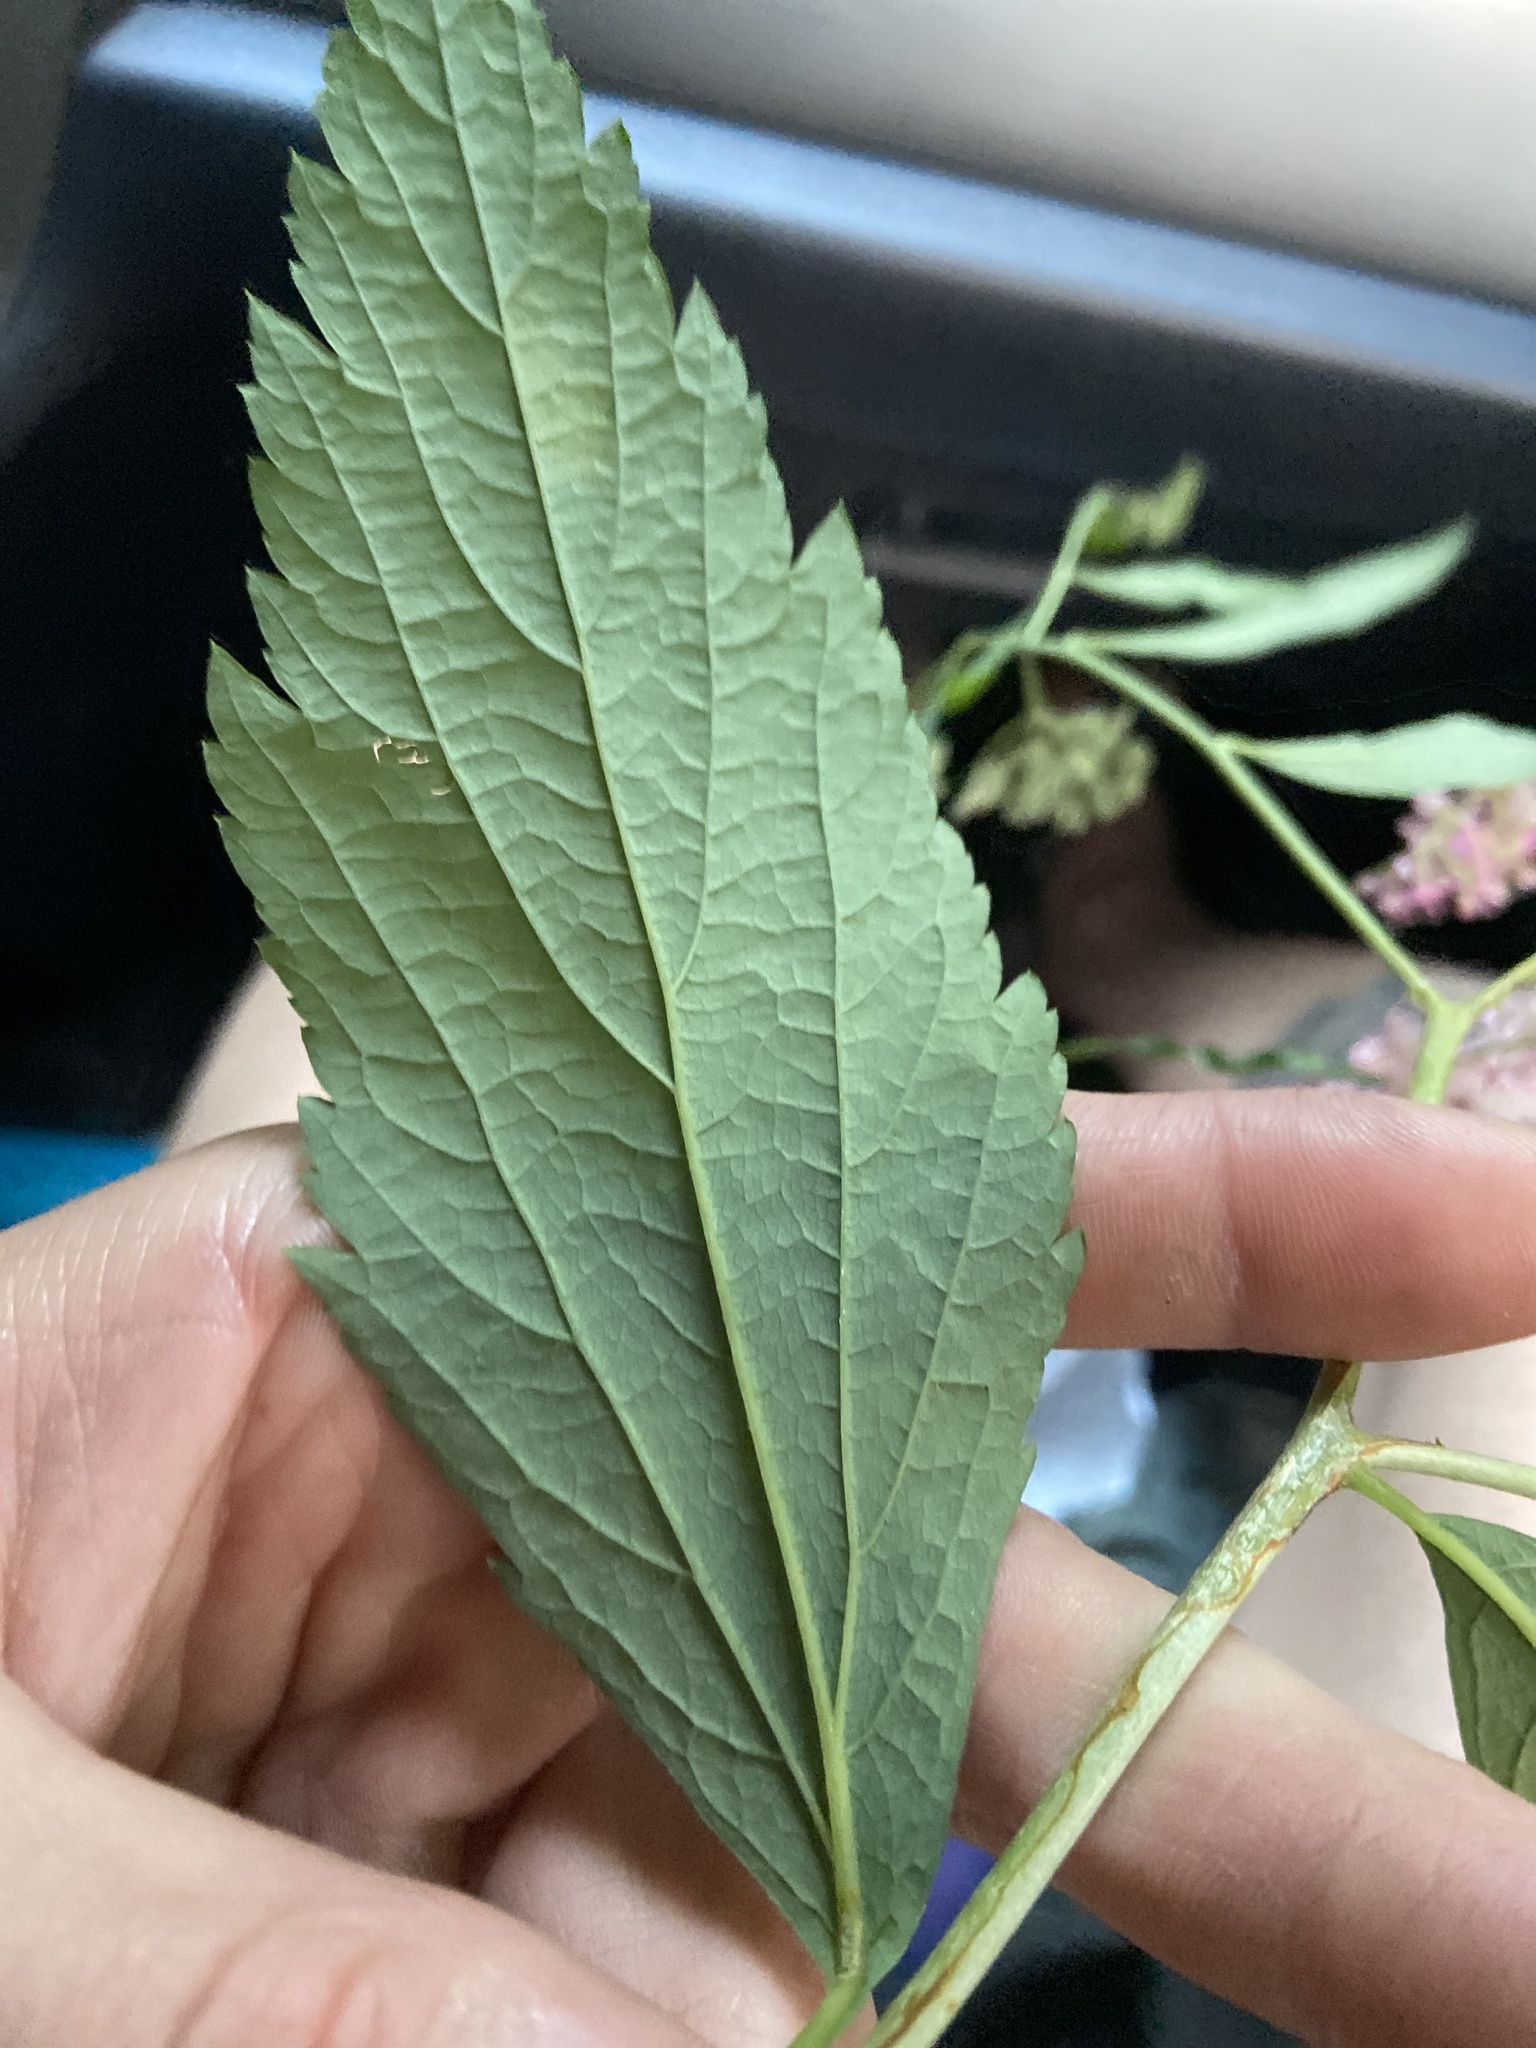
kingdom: Plantae
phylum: Tracheophyta
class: Magnoliopsida
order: Rosales
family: Rosaceae
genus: Spiraea
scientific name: Spiraea japonica
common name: Japanese spiraea
